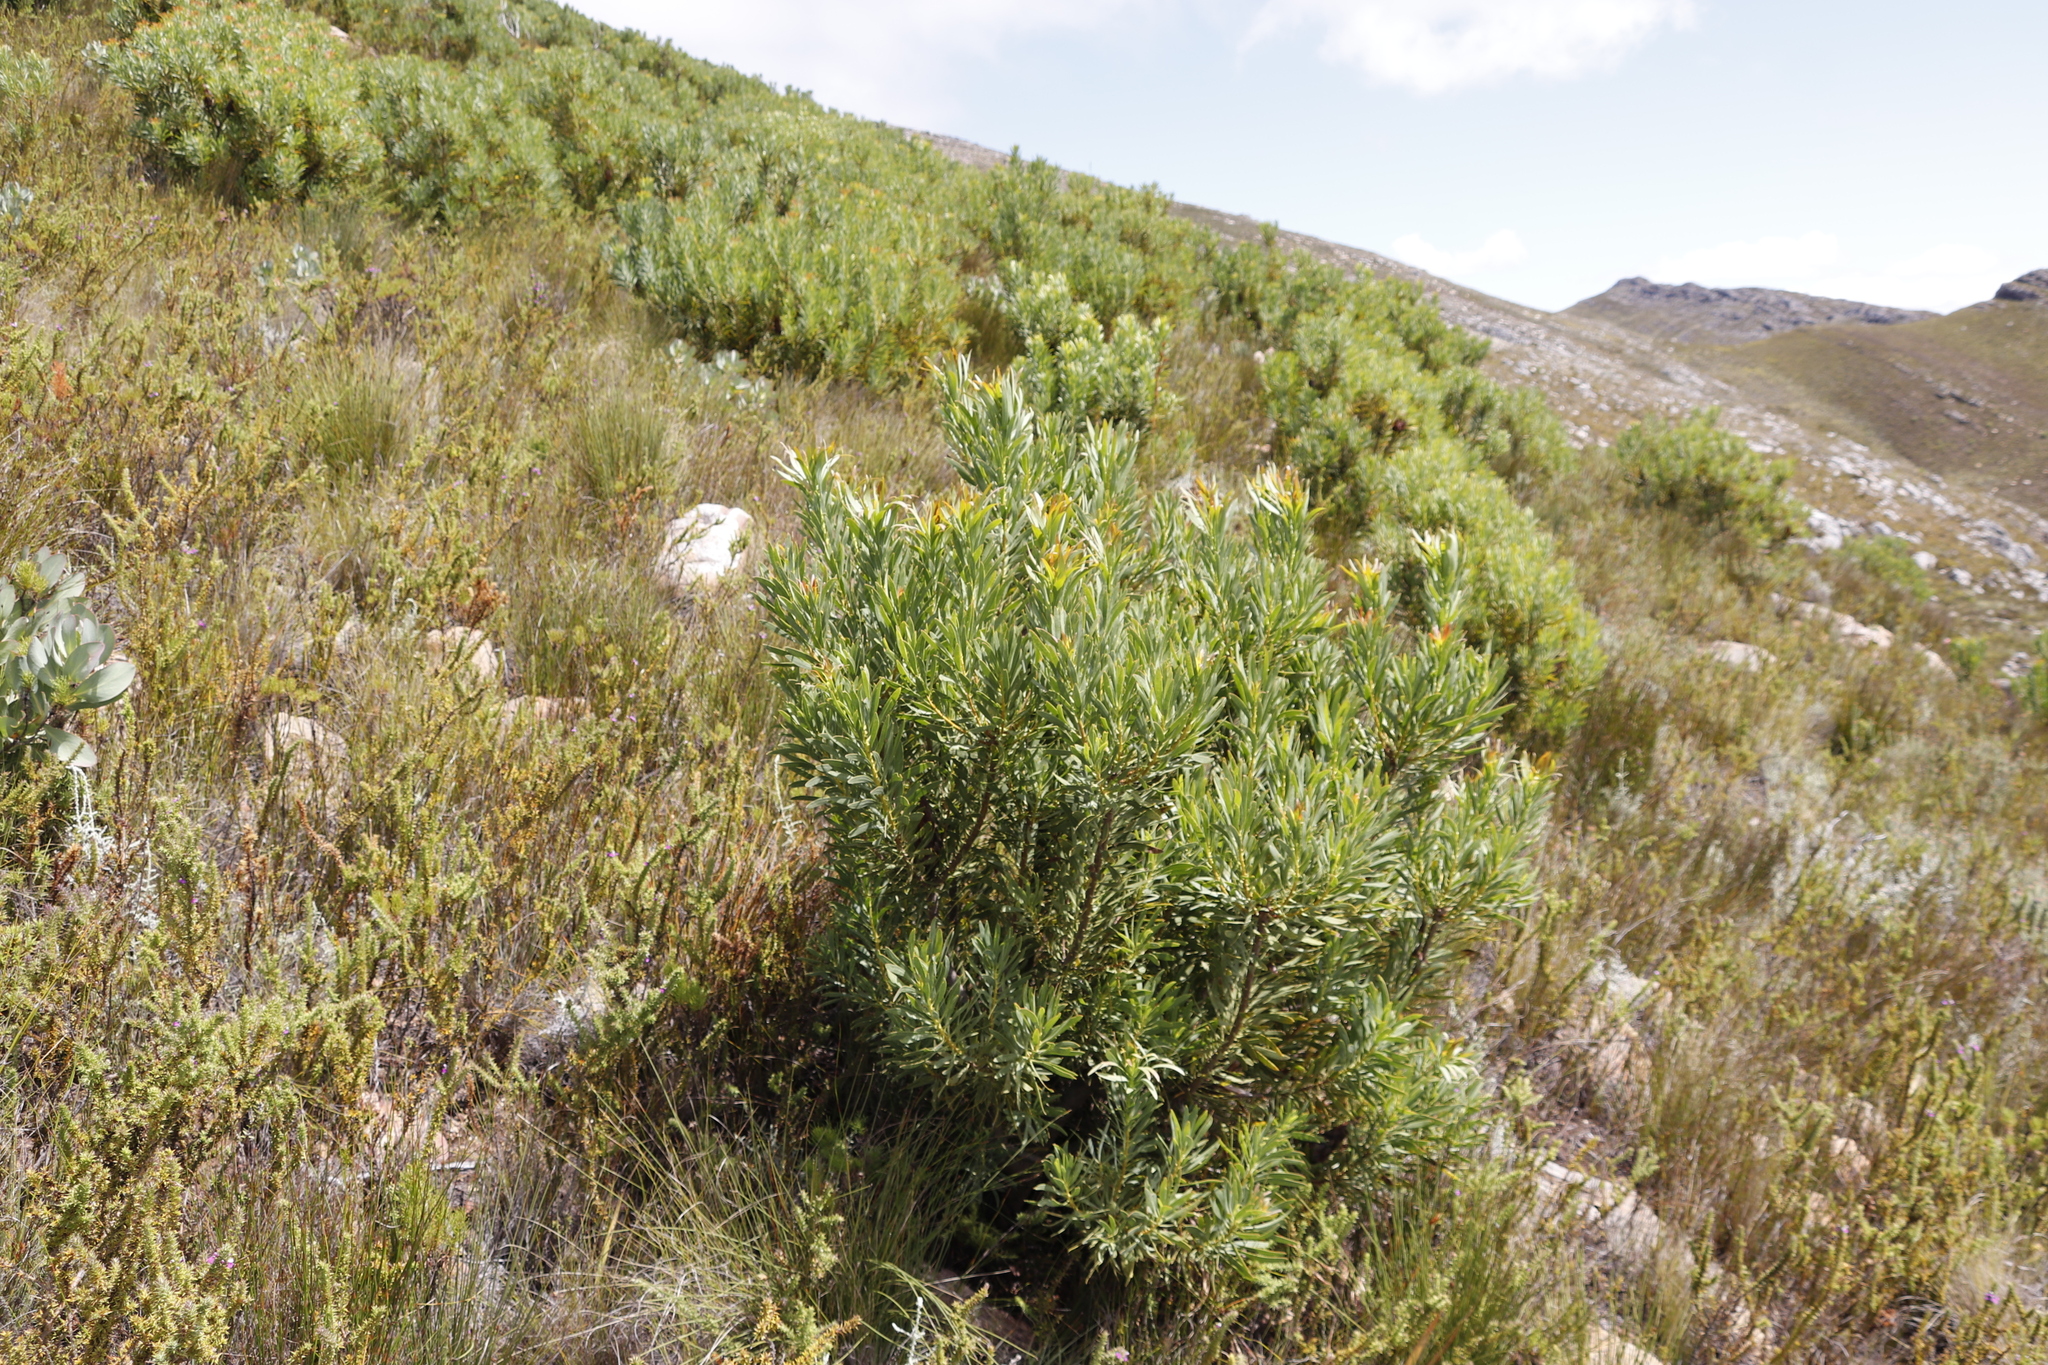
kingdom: Plantae
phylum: Tracheophyta
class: Magnoliopsida
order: Proteales
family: Proteaceae
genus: Protea
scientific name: Protea repens
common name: Sugarbush
